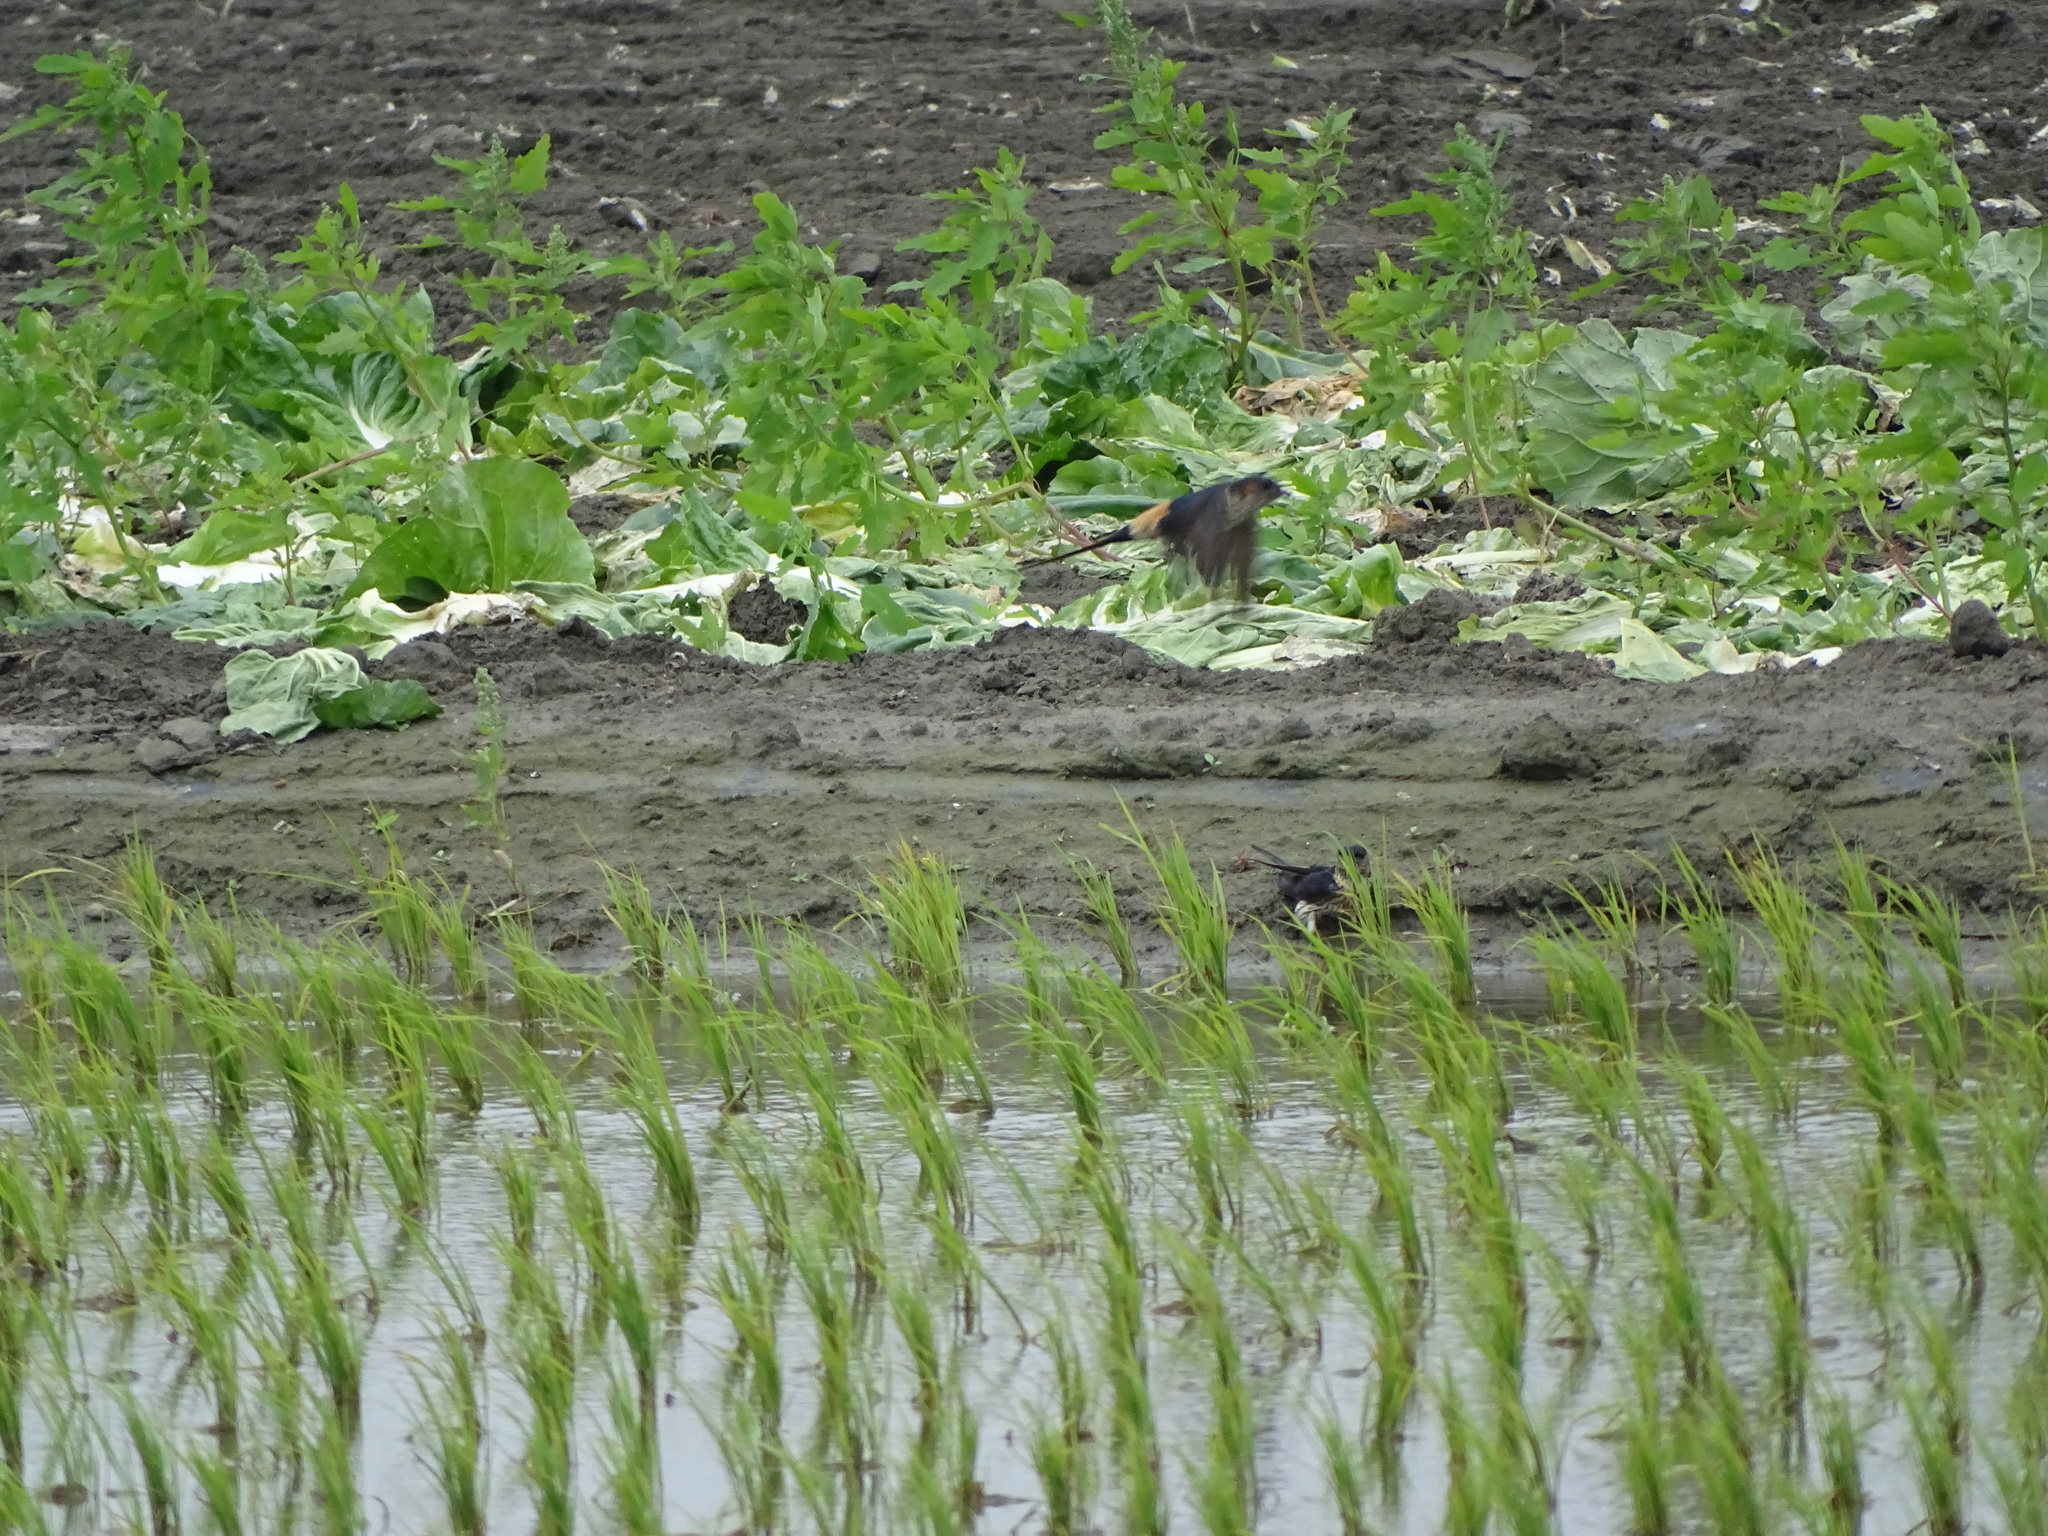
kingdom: Animalia
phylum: Chordata
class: Aves
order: Passeriformes
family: Hirundinidae
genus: Cecropis
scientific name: Cecropis striolata
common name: Striated swallow
